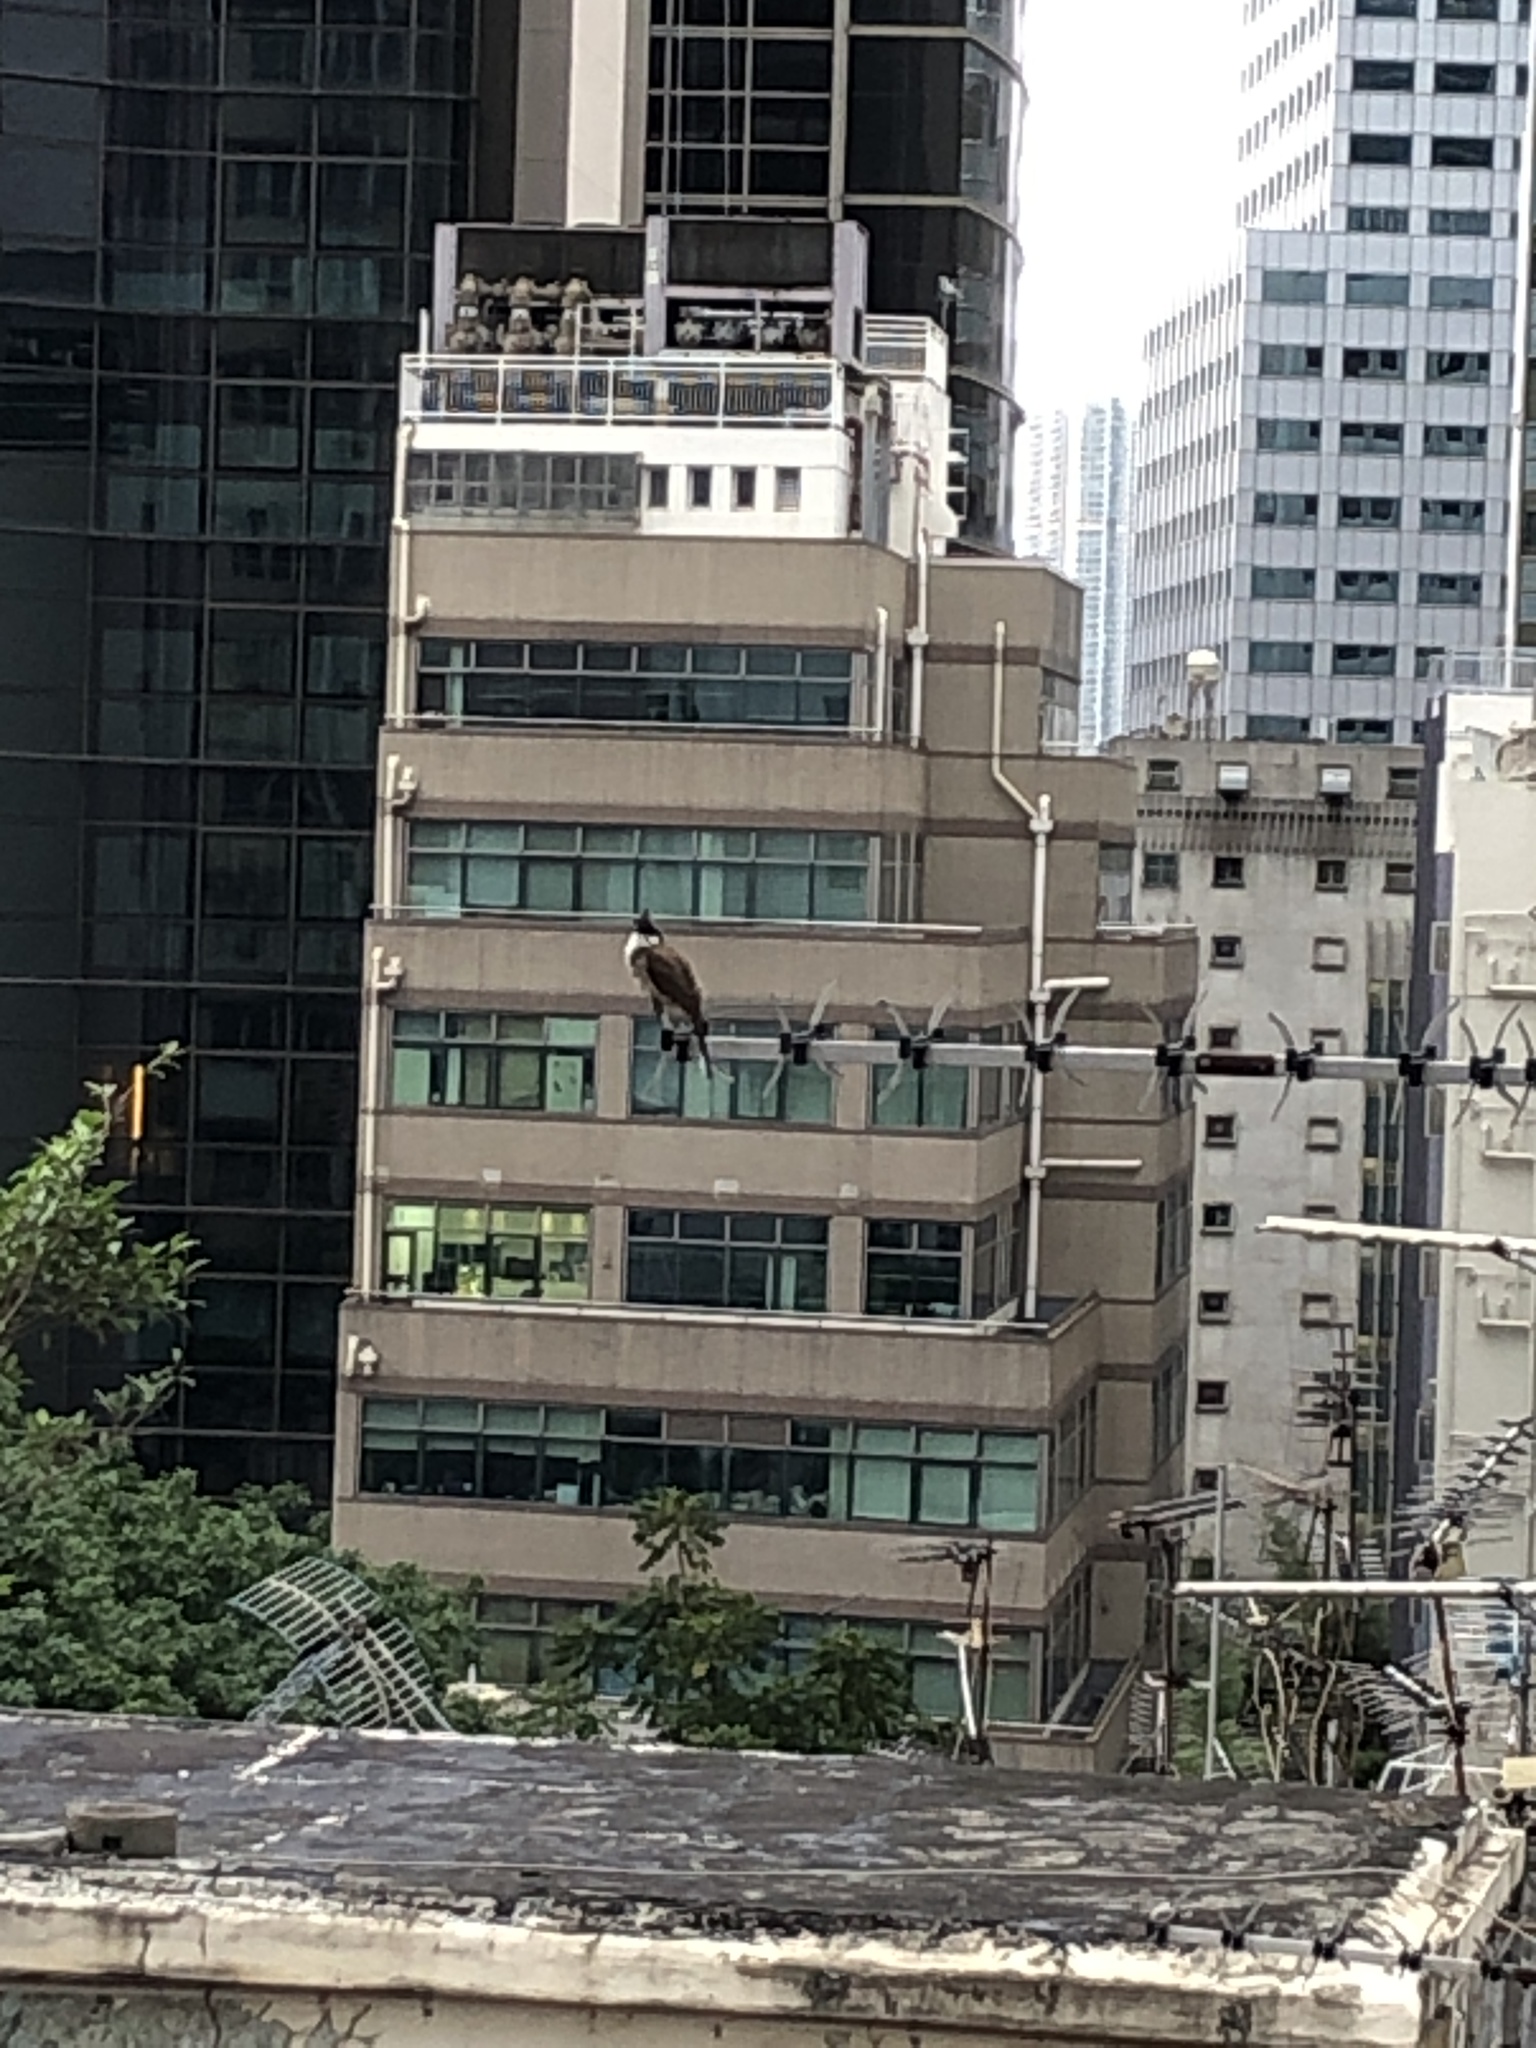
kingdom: Animalia
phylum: Chordata
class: Aves
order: Passeriformes
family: Pycnonotidae
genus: Pycnonotus
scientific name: Pycnonotus jocosus
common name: Red-whiskered bulbul
